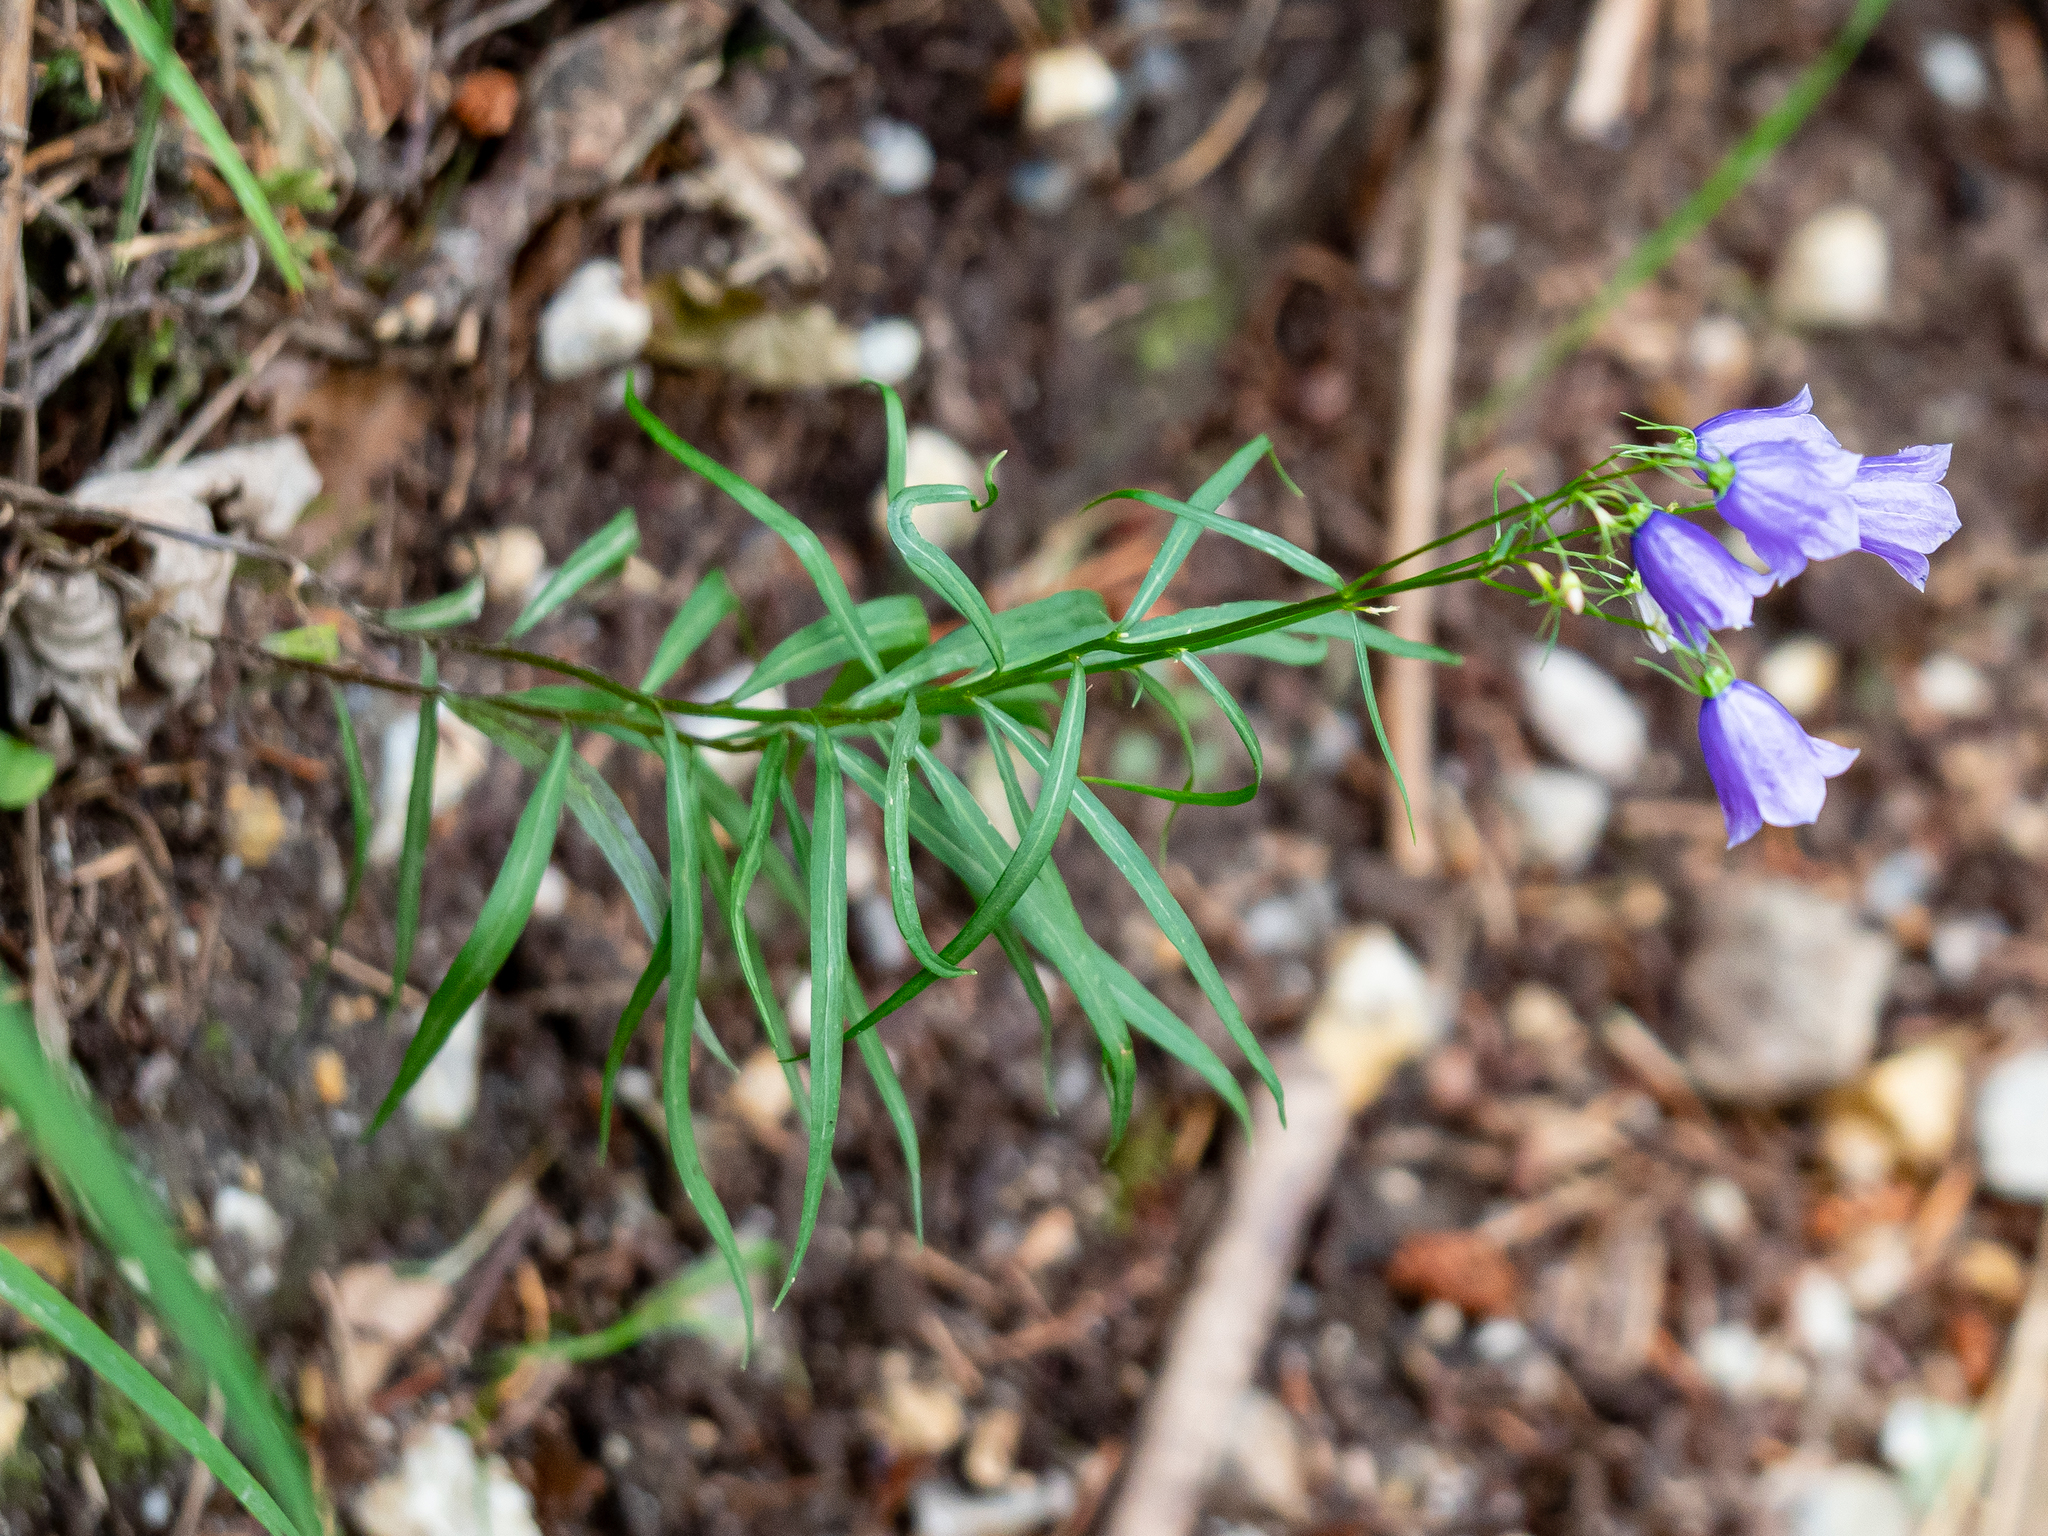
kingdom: Plantae
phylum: Tracheophyta
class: Magnoliopsida
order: Asterales
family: Campanulaceae
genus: Campanula
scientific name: Campanula witasekiana
